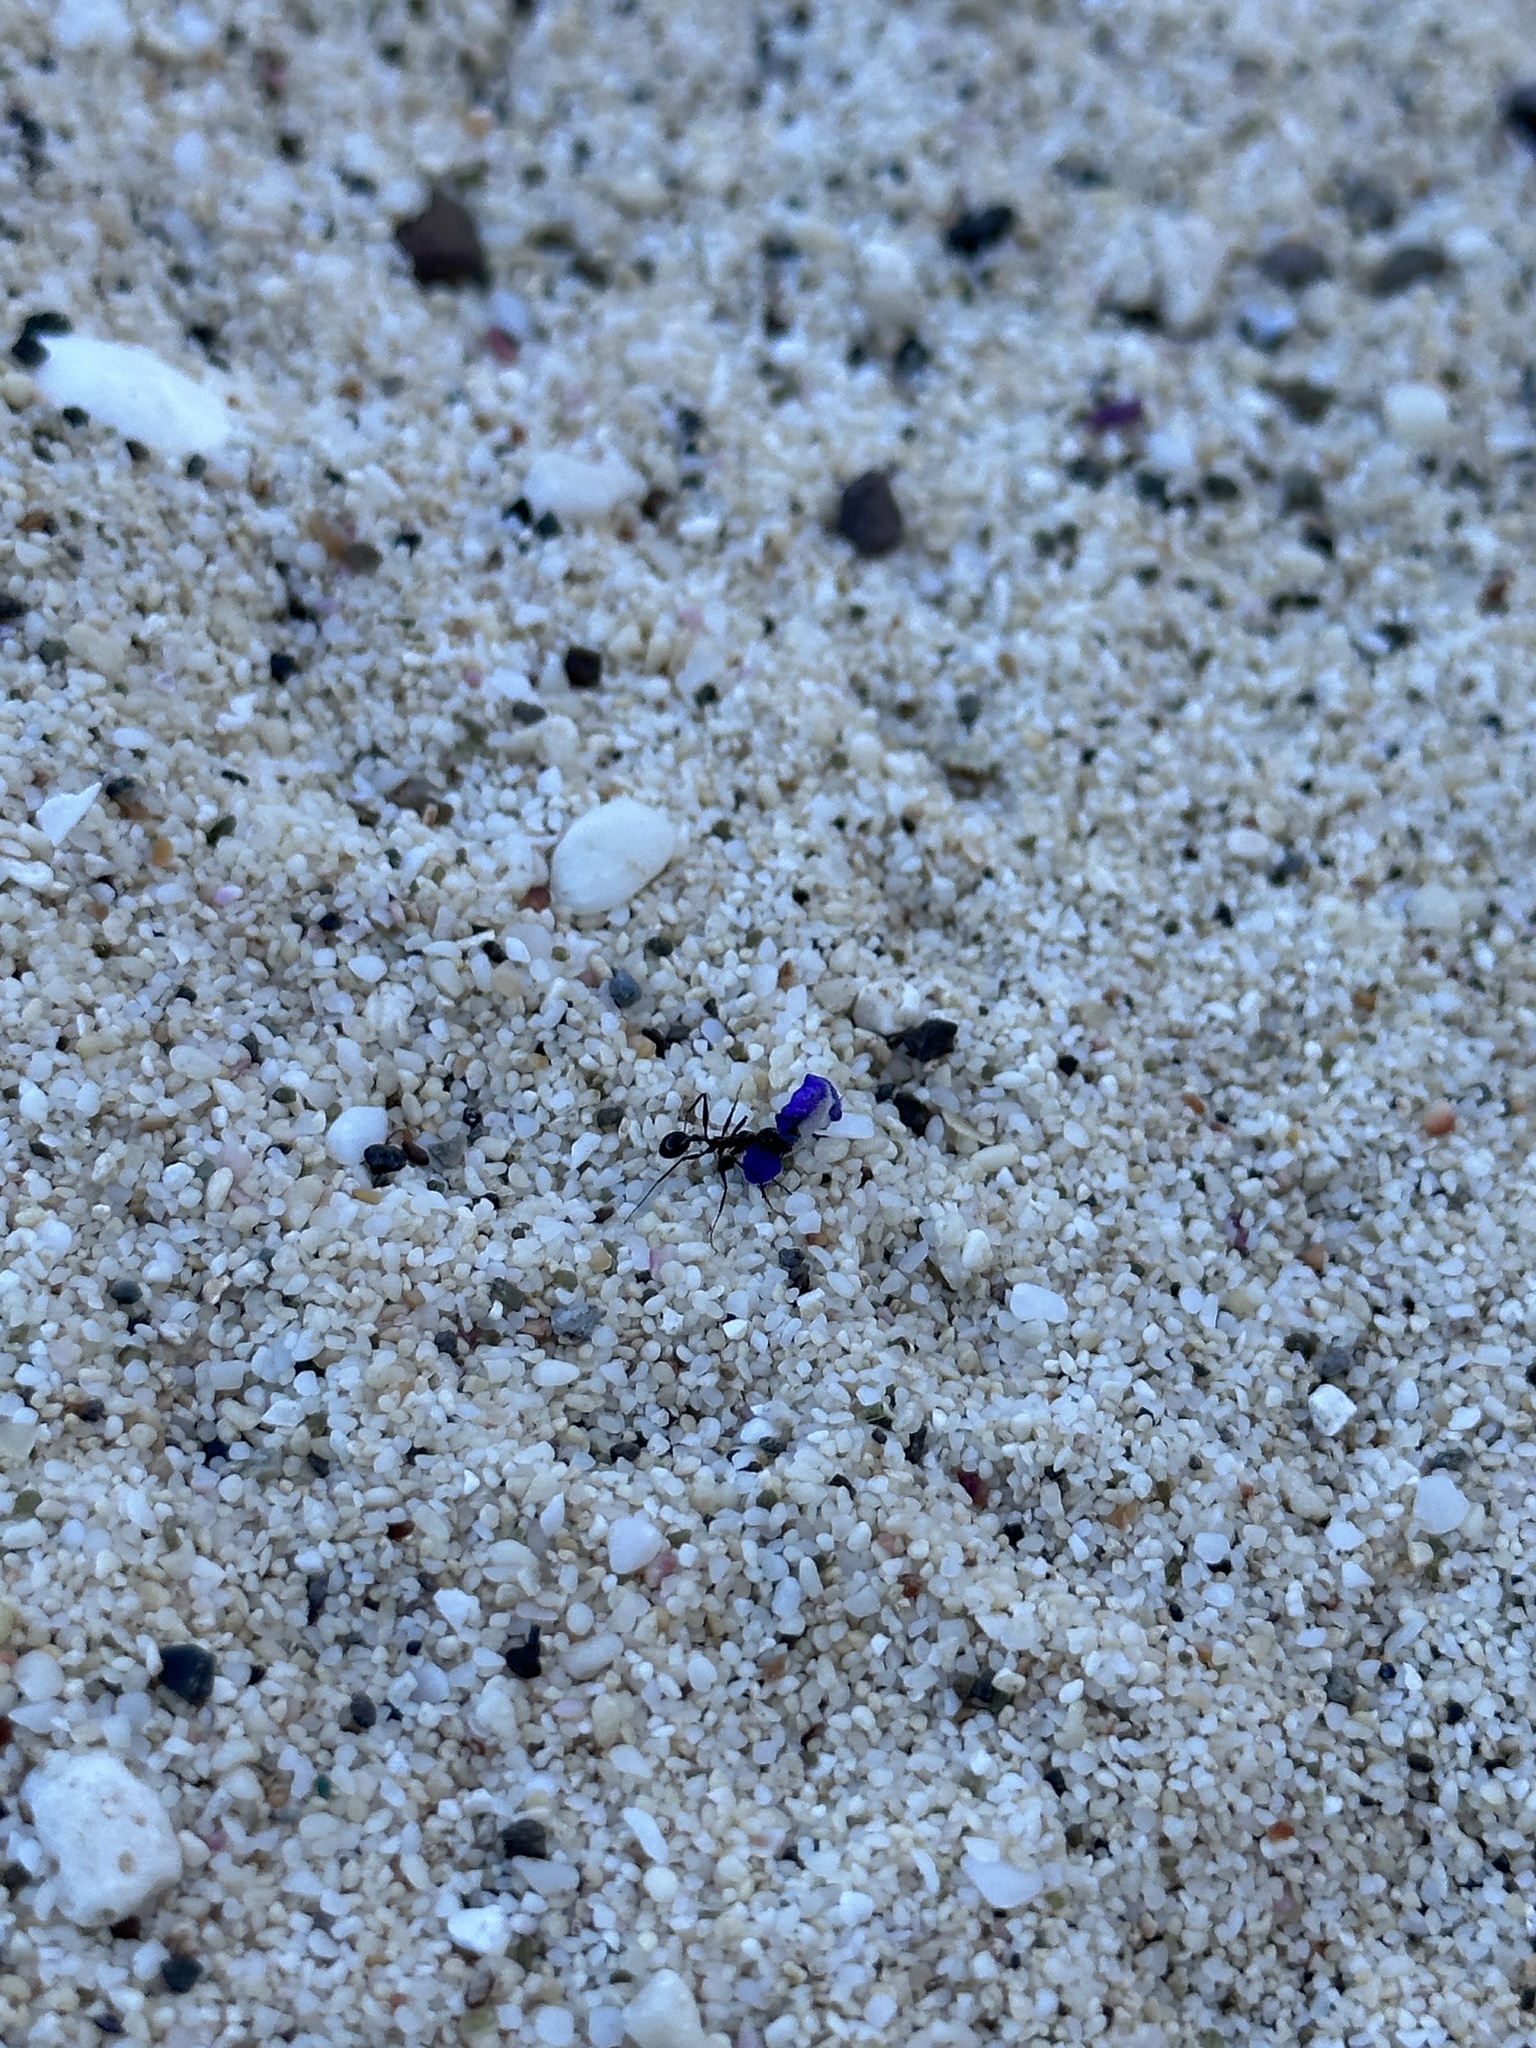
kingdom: Animalia
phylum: Arthropoda
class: Insecta
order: Hymenoptera
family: Formicidae
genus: Aphaenogaster
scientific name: Aphaenogaster osimensis
